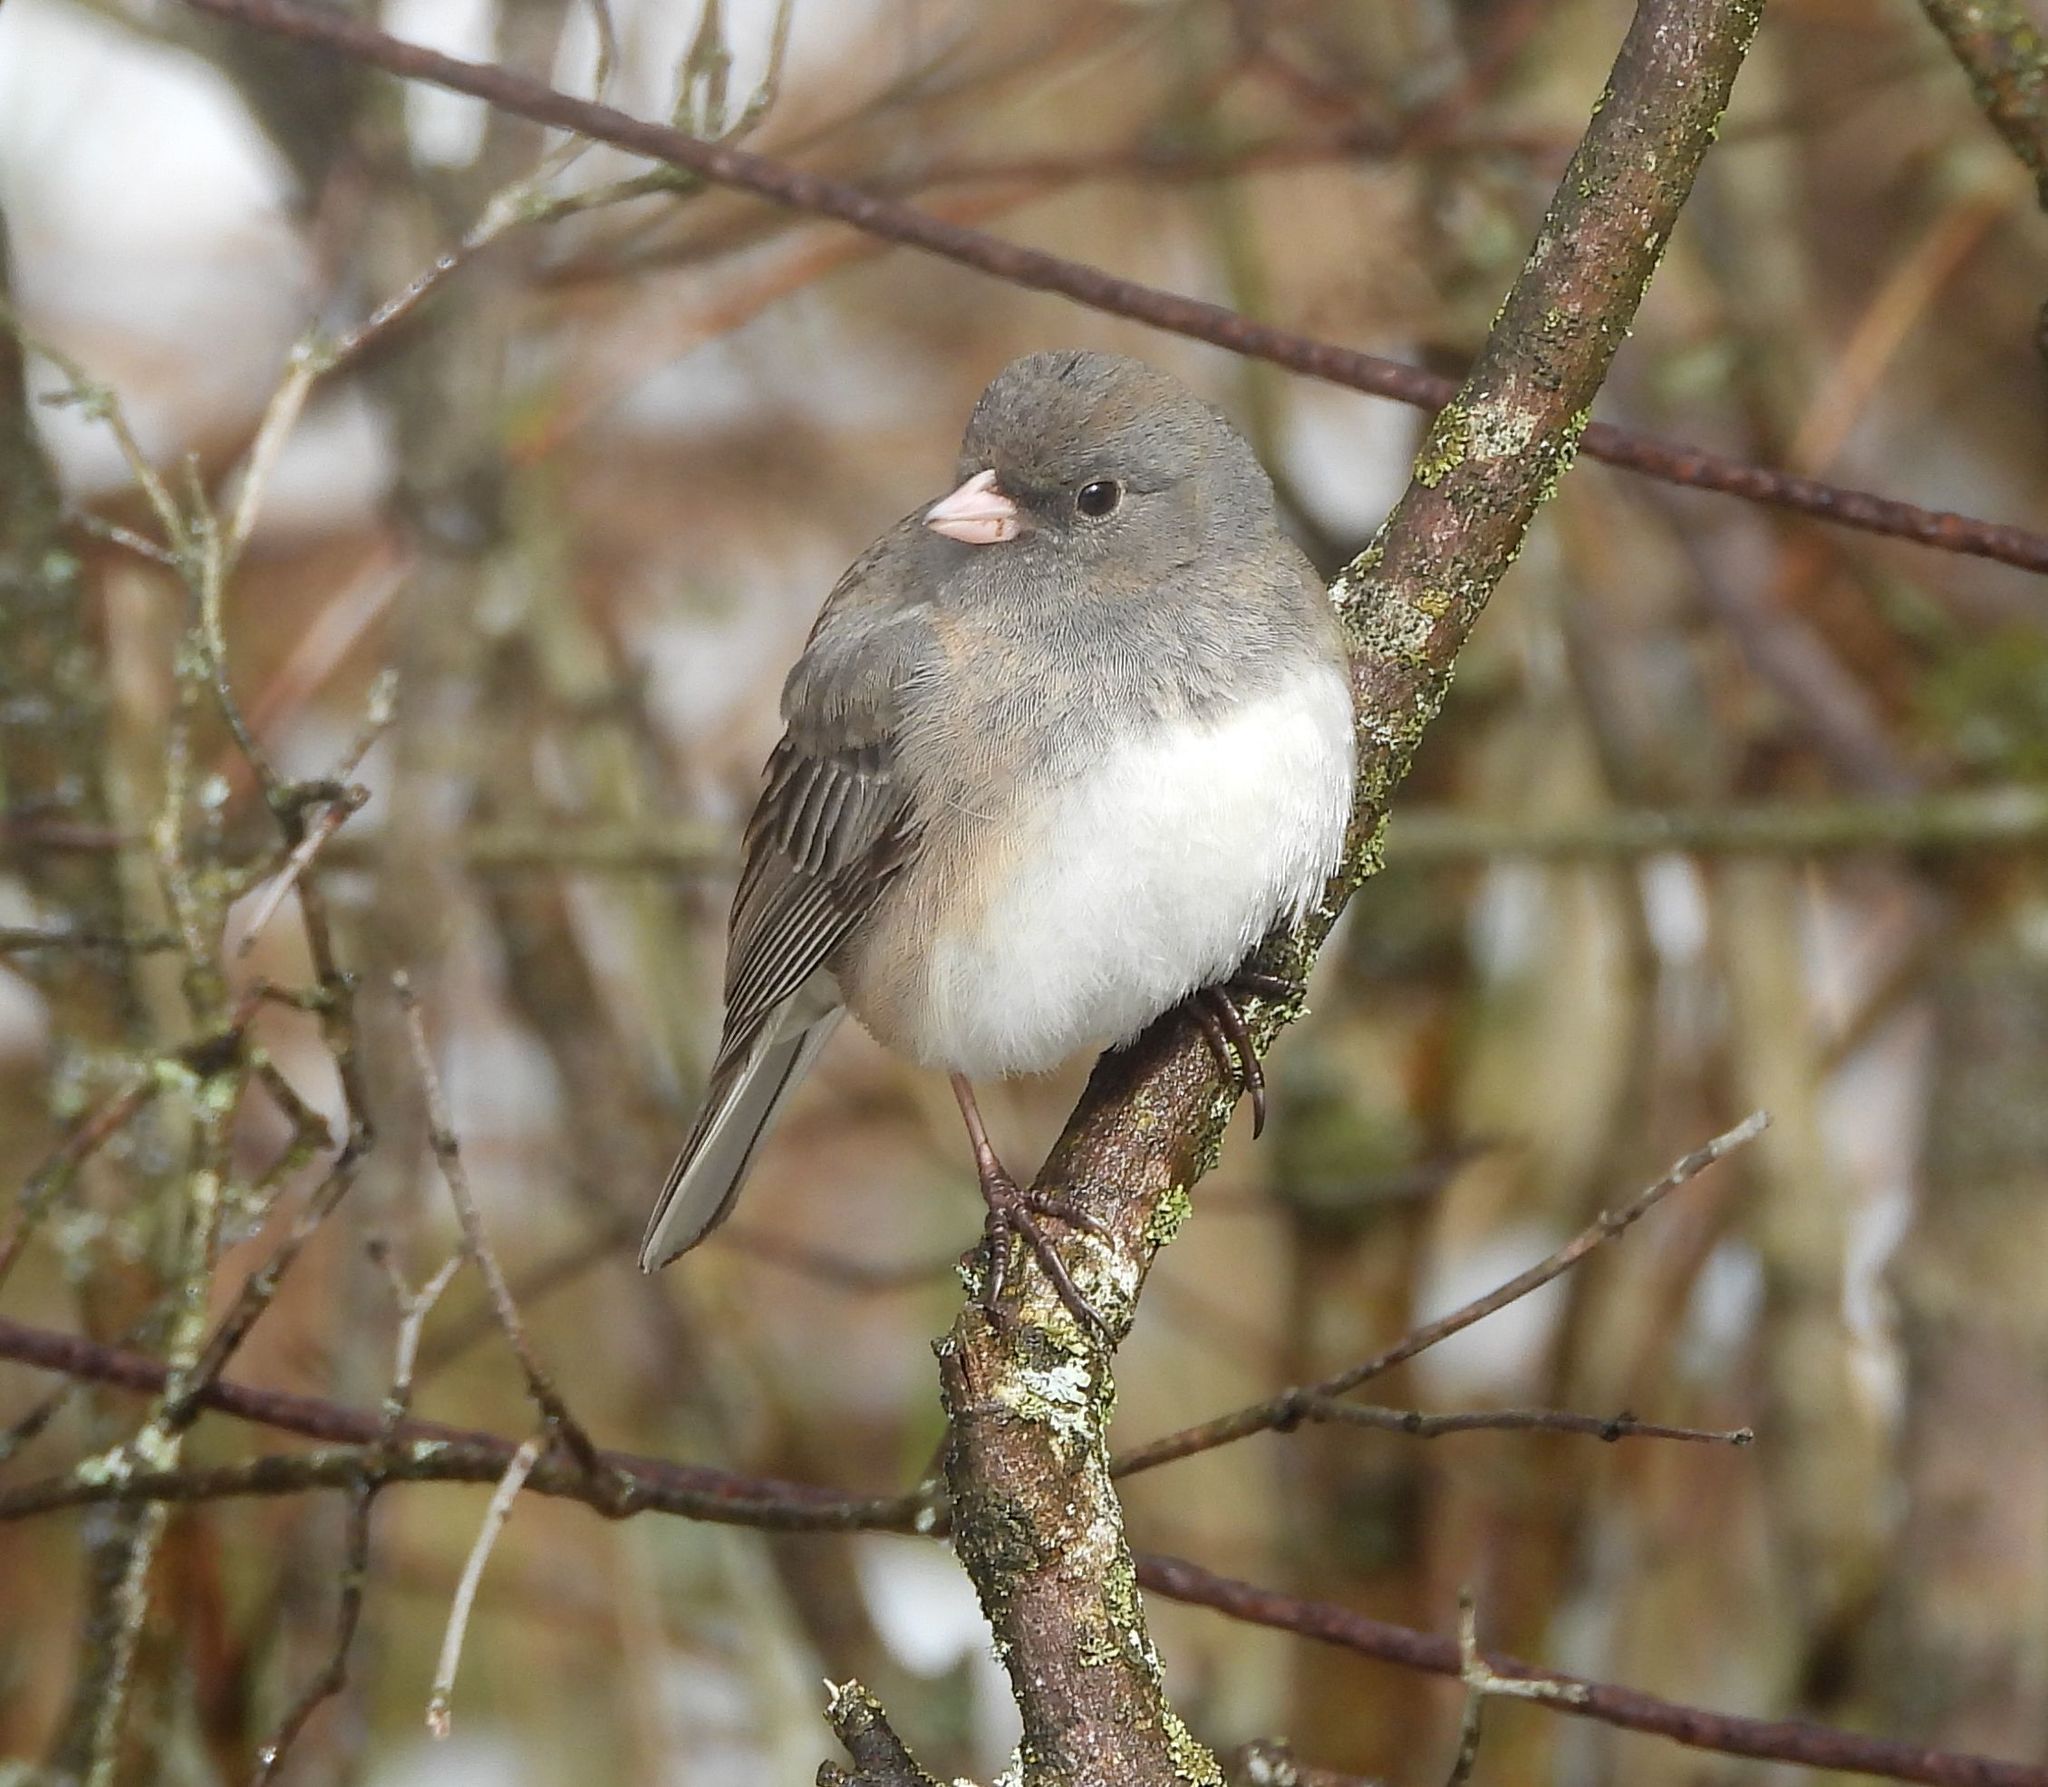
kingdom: Animalia
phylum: Chordata
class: Aves
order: Passeriformes
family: Passerellidae
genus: Junco
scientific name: Junco hyemalis
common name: Dark-eyed junco
